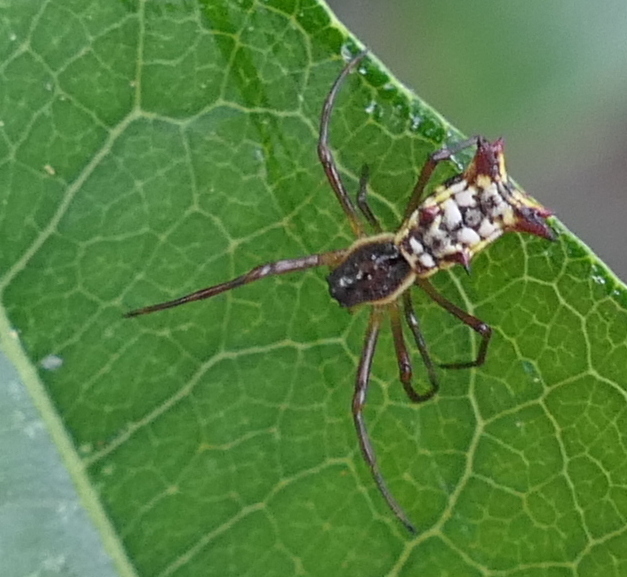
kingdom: Animalia
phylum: Arthropoda
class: Arachnida
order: Araneae
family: Araneidae
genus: Micrathena
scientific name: Micrathena fissispina
